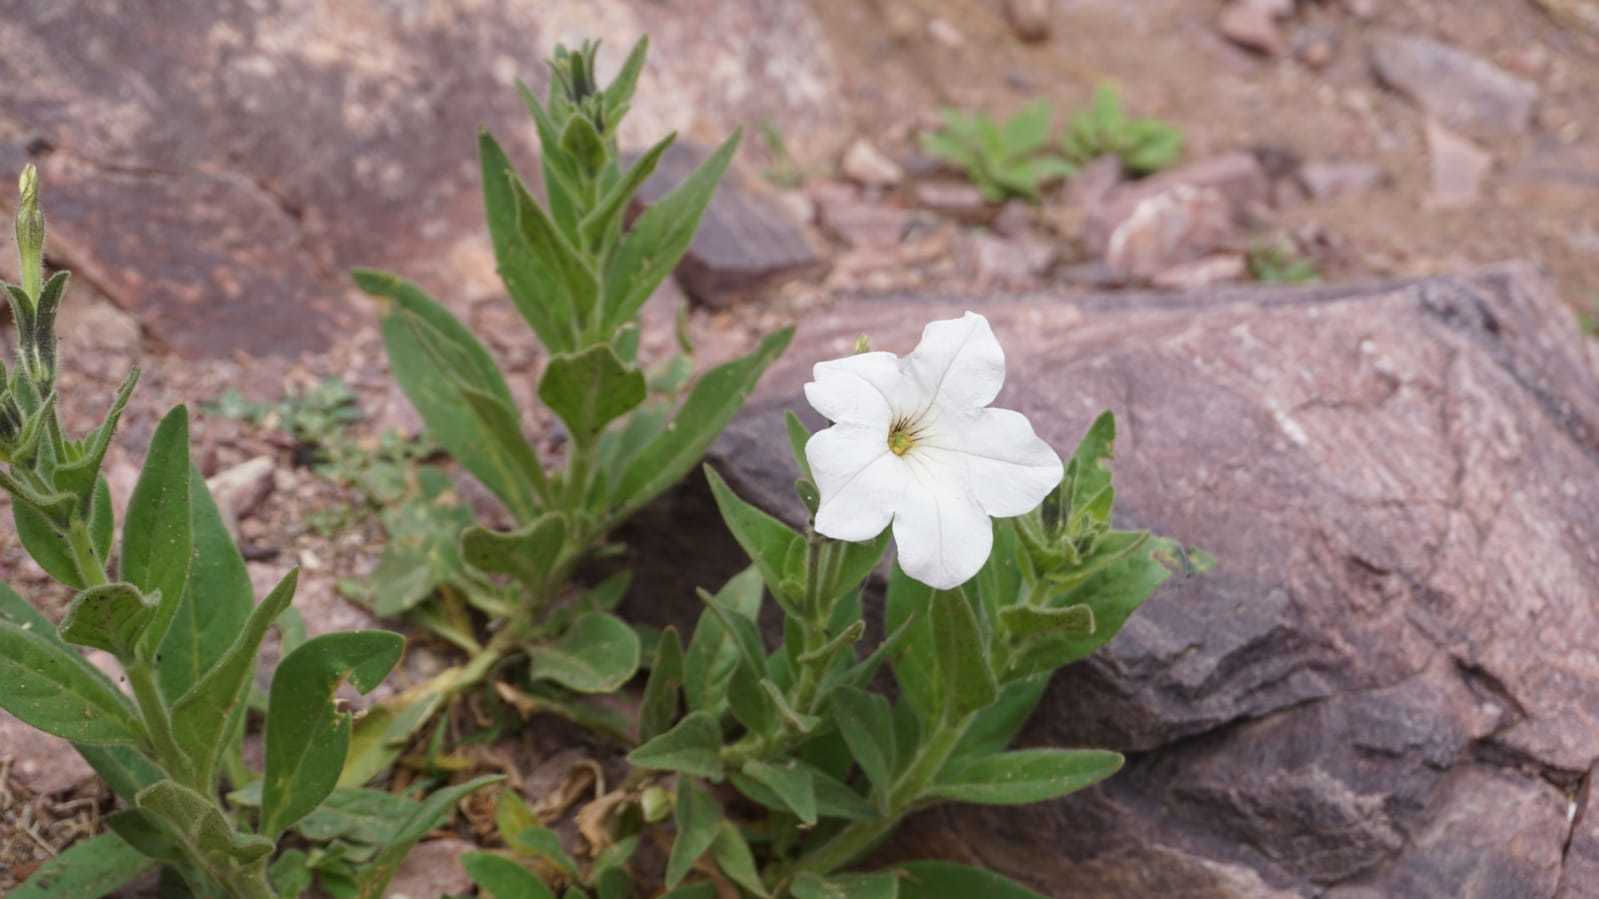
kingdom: Plantae
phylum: Tracheophyta
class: Magnoliopsida
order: Solanales
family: Solanaceae
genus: Petunia
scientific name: Petunia axillaris
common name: Large white petunia
